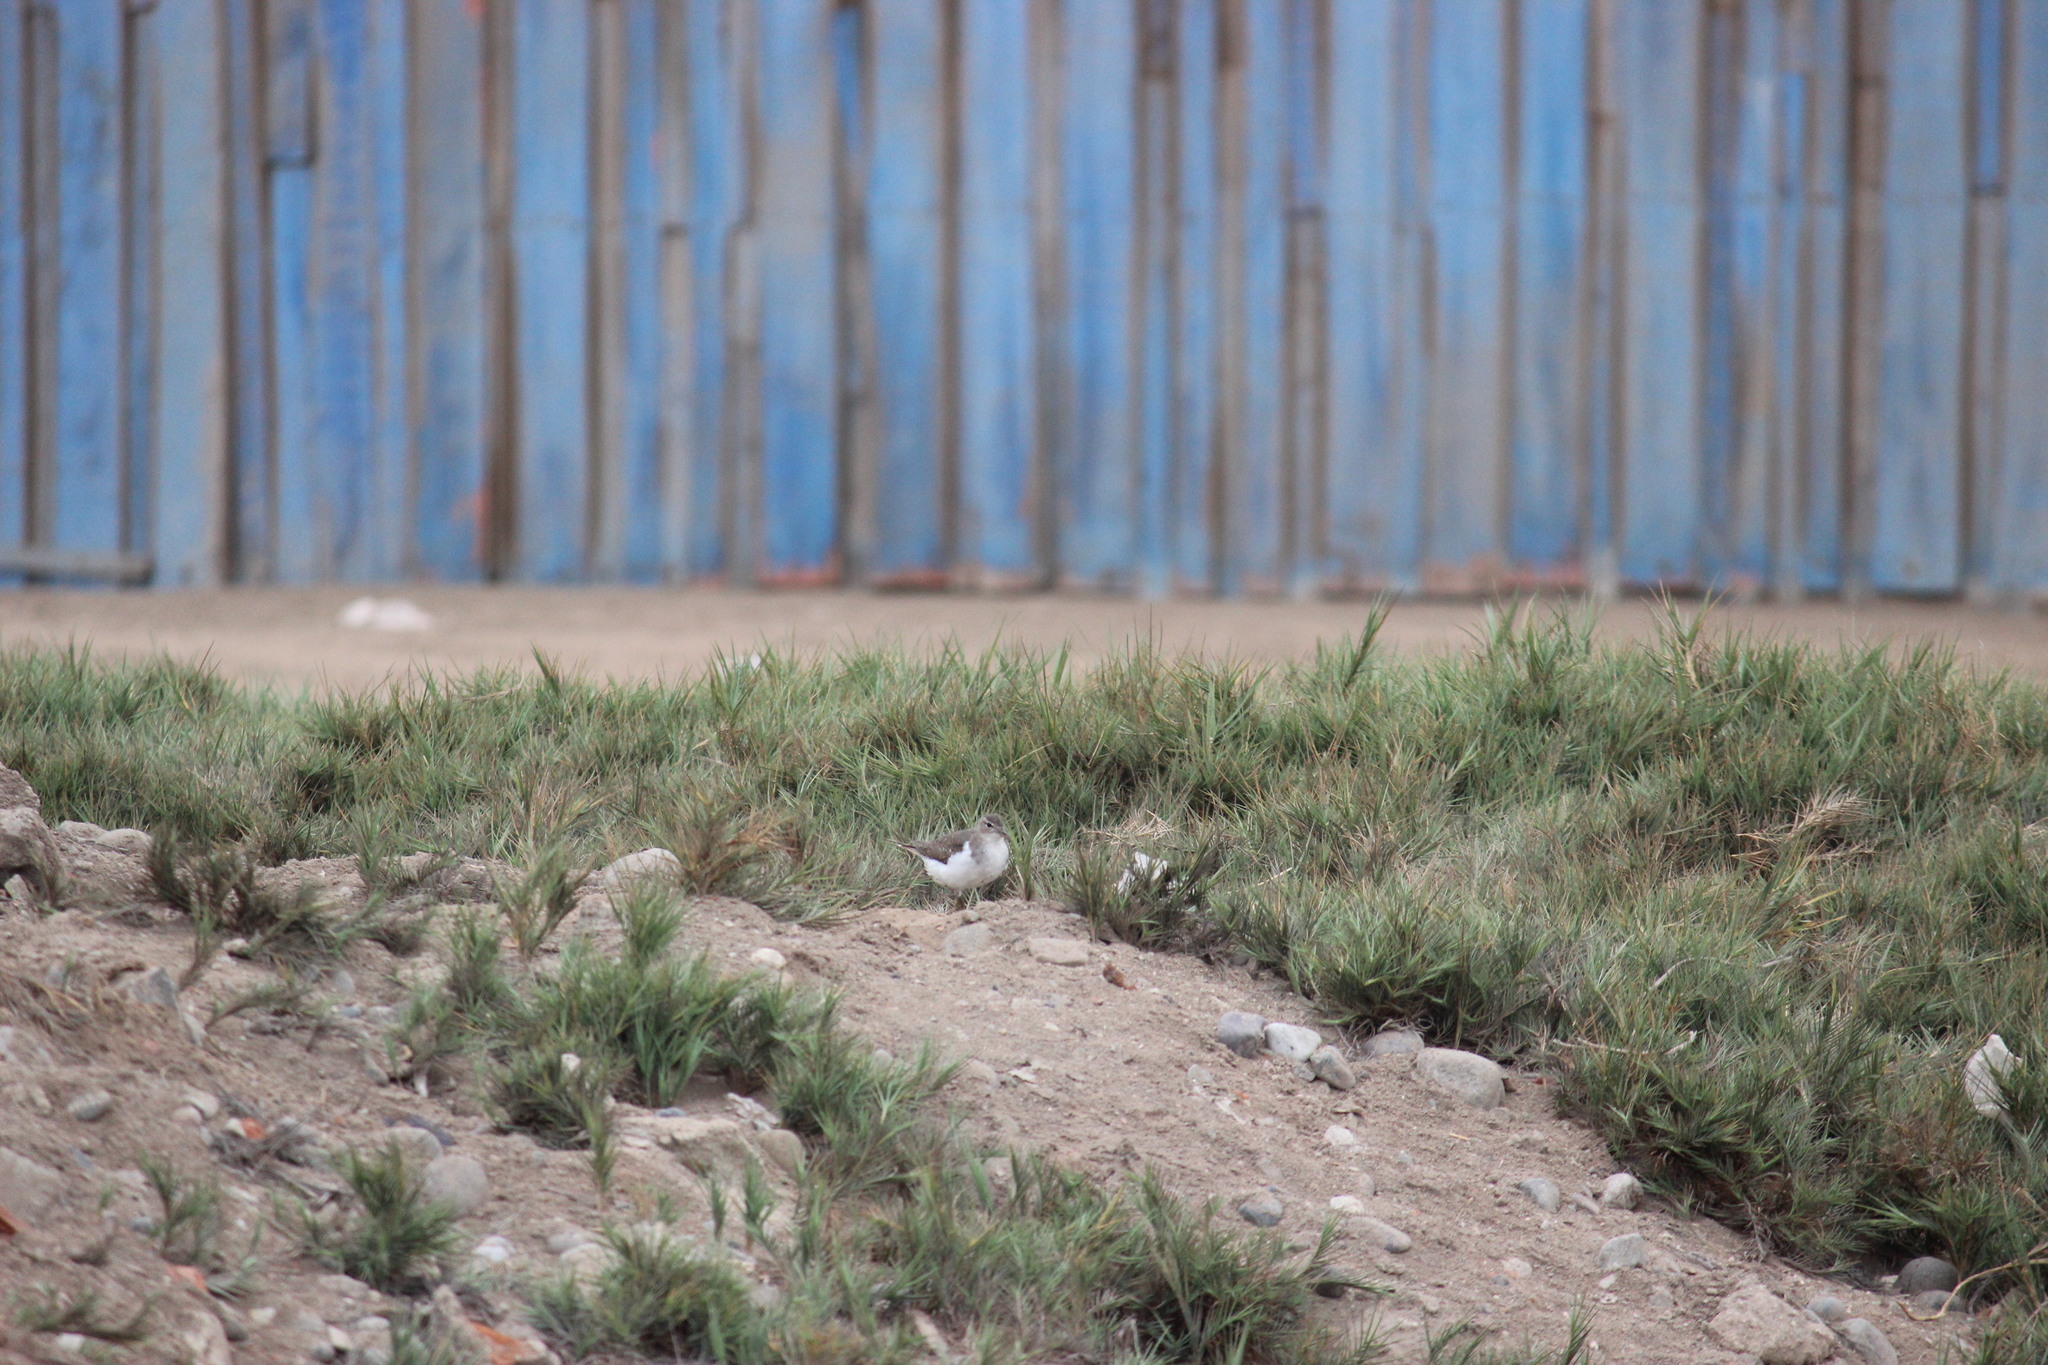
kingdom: Animalia
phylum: Chordata
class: Aves
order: Charadriiformes
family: Scolopacidae
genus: Actitis
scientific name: Actitis macularius
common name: Spotted sandpiper
